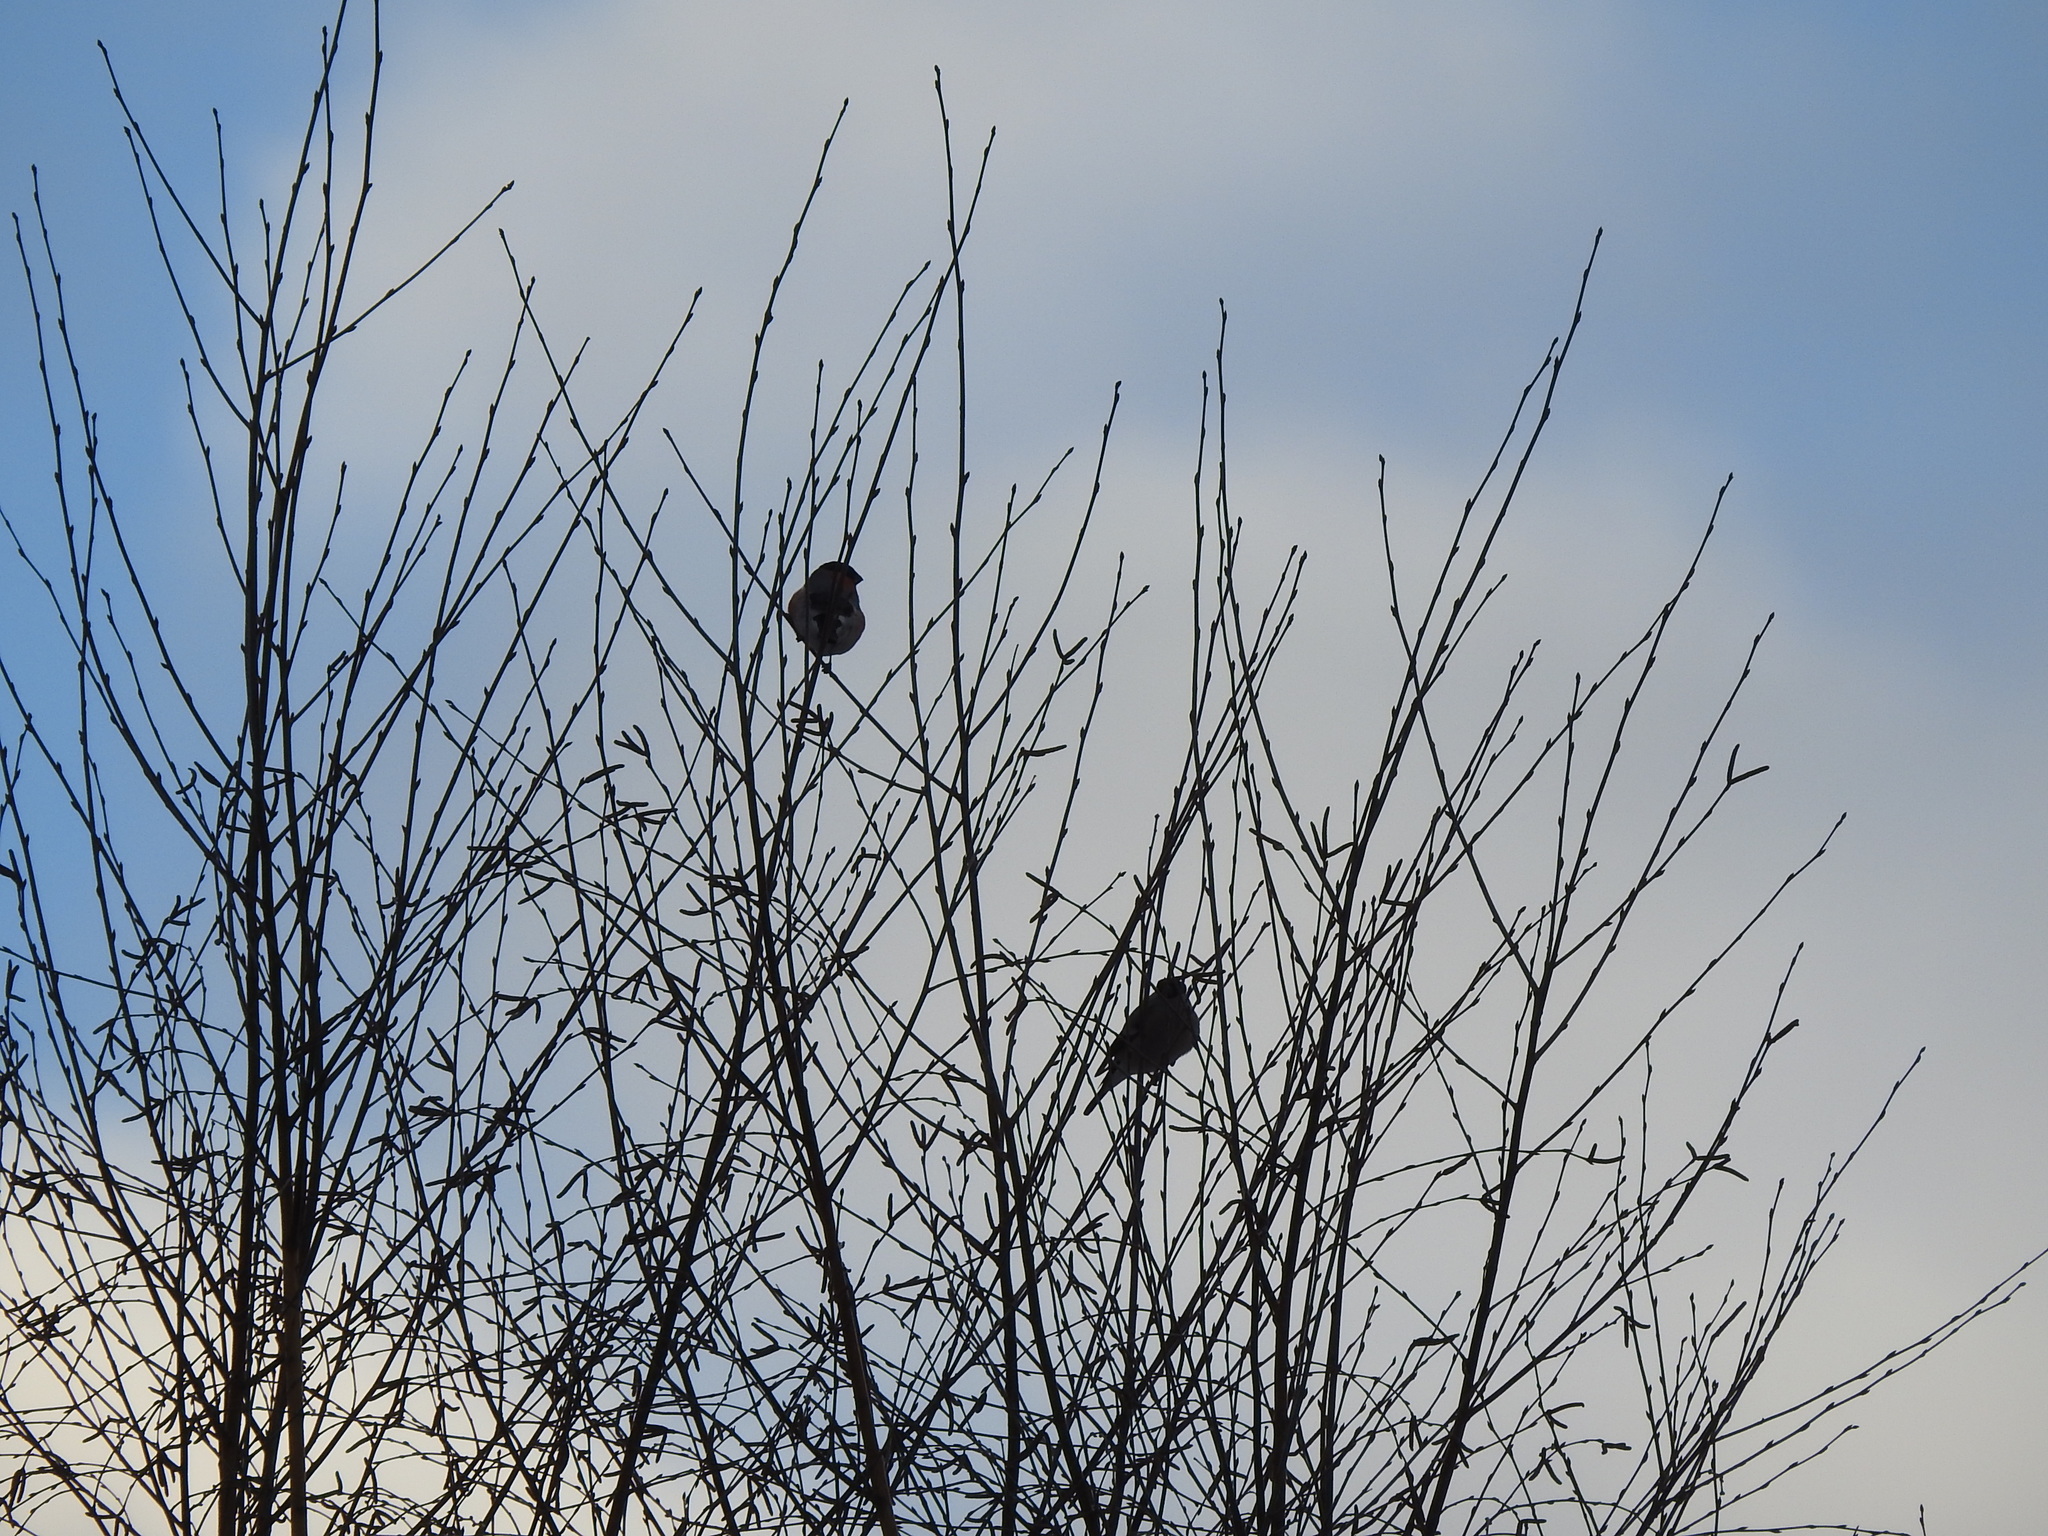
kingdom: Animalia
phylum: Chordata
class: Aves
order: Passeriformes
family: Fringillidae
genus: Pyrrhula
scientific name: Pyrrhula pyrrhula
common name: Eurasian bullfinch
